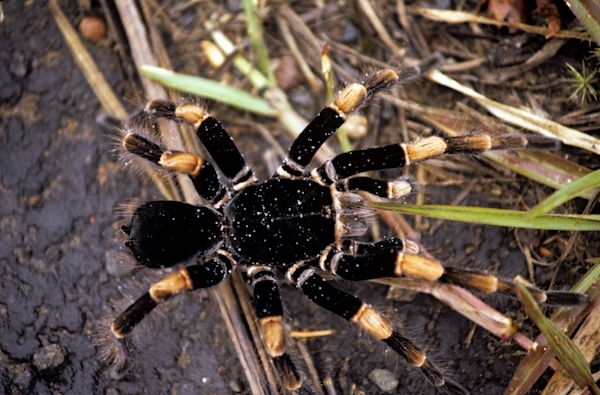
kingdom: Animalia
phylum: Arthropoda
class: Arachnida
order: Araneae
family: Theraphosidae
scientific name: Theraphosidae
